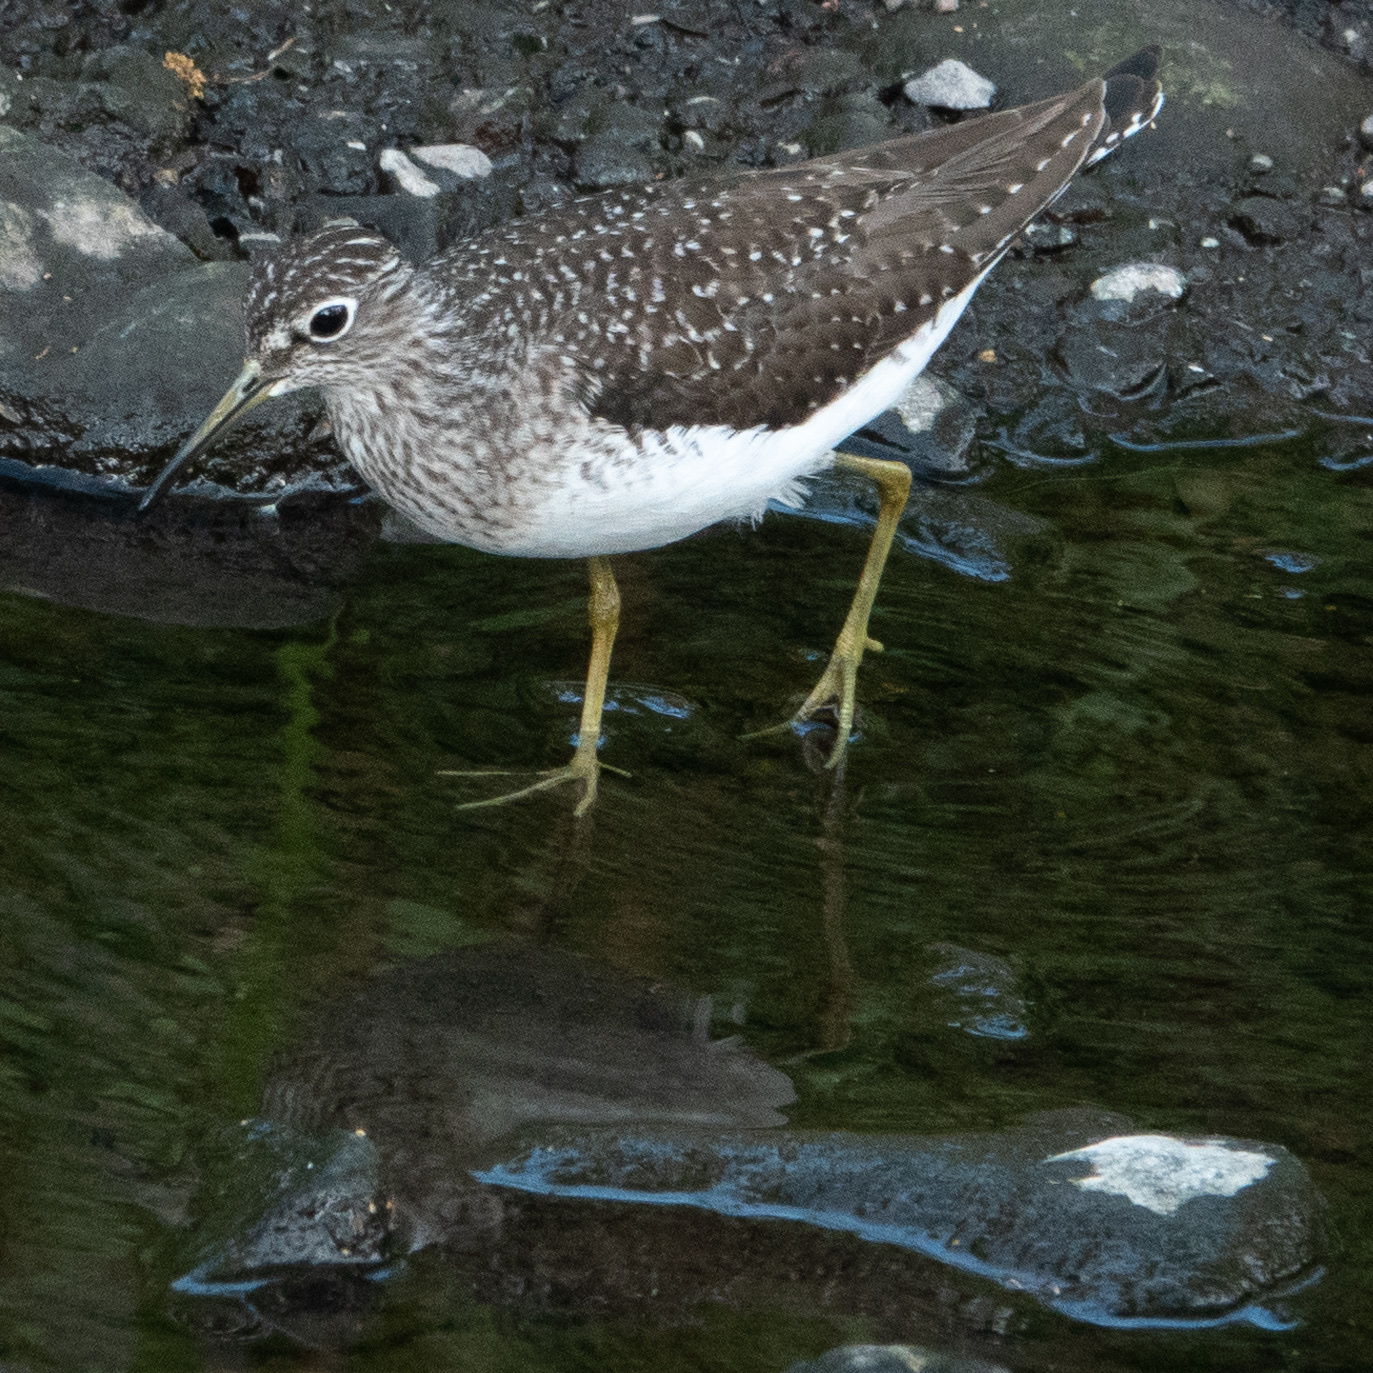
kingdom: Animalia
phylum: Chordata
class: Aves
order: Charadriiformes
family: Scolopacidae
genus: Tringa
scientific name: Tringa solitaria
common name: Solitary sandpiper
